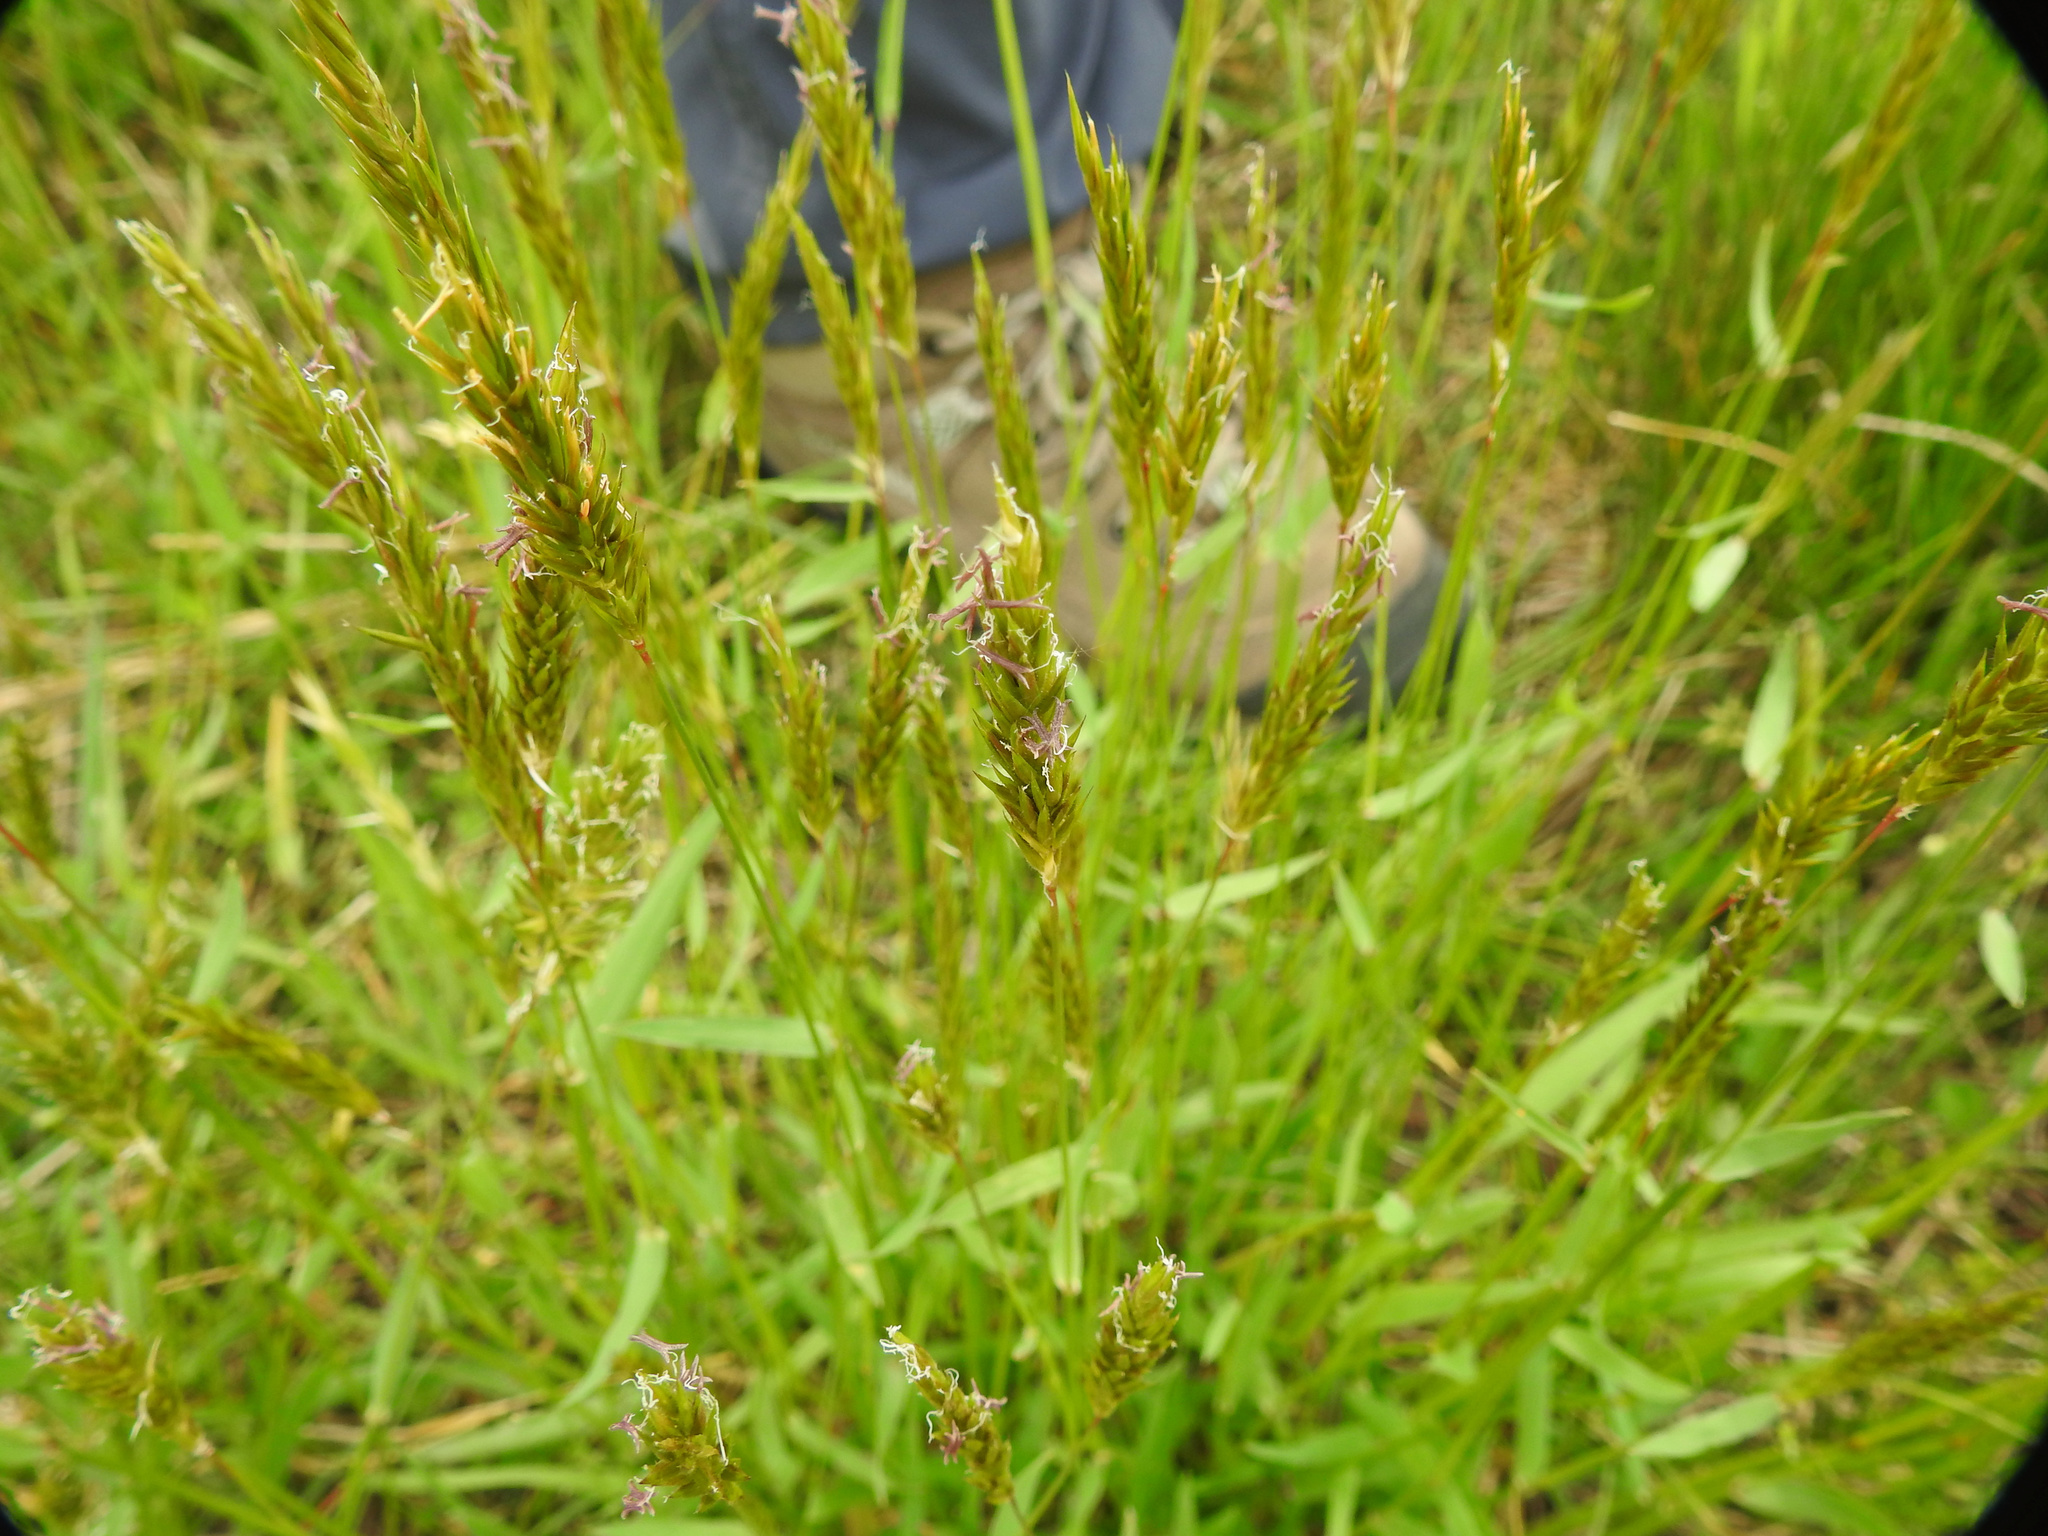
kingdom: Plantae
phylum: Tracheophyta
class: Liliopsida
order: Poales
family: Poaceae
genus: Anthoxanthum
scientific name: Anthoxanthum odoratum
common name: Sweet vernalgrass
